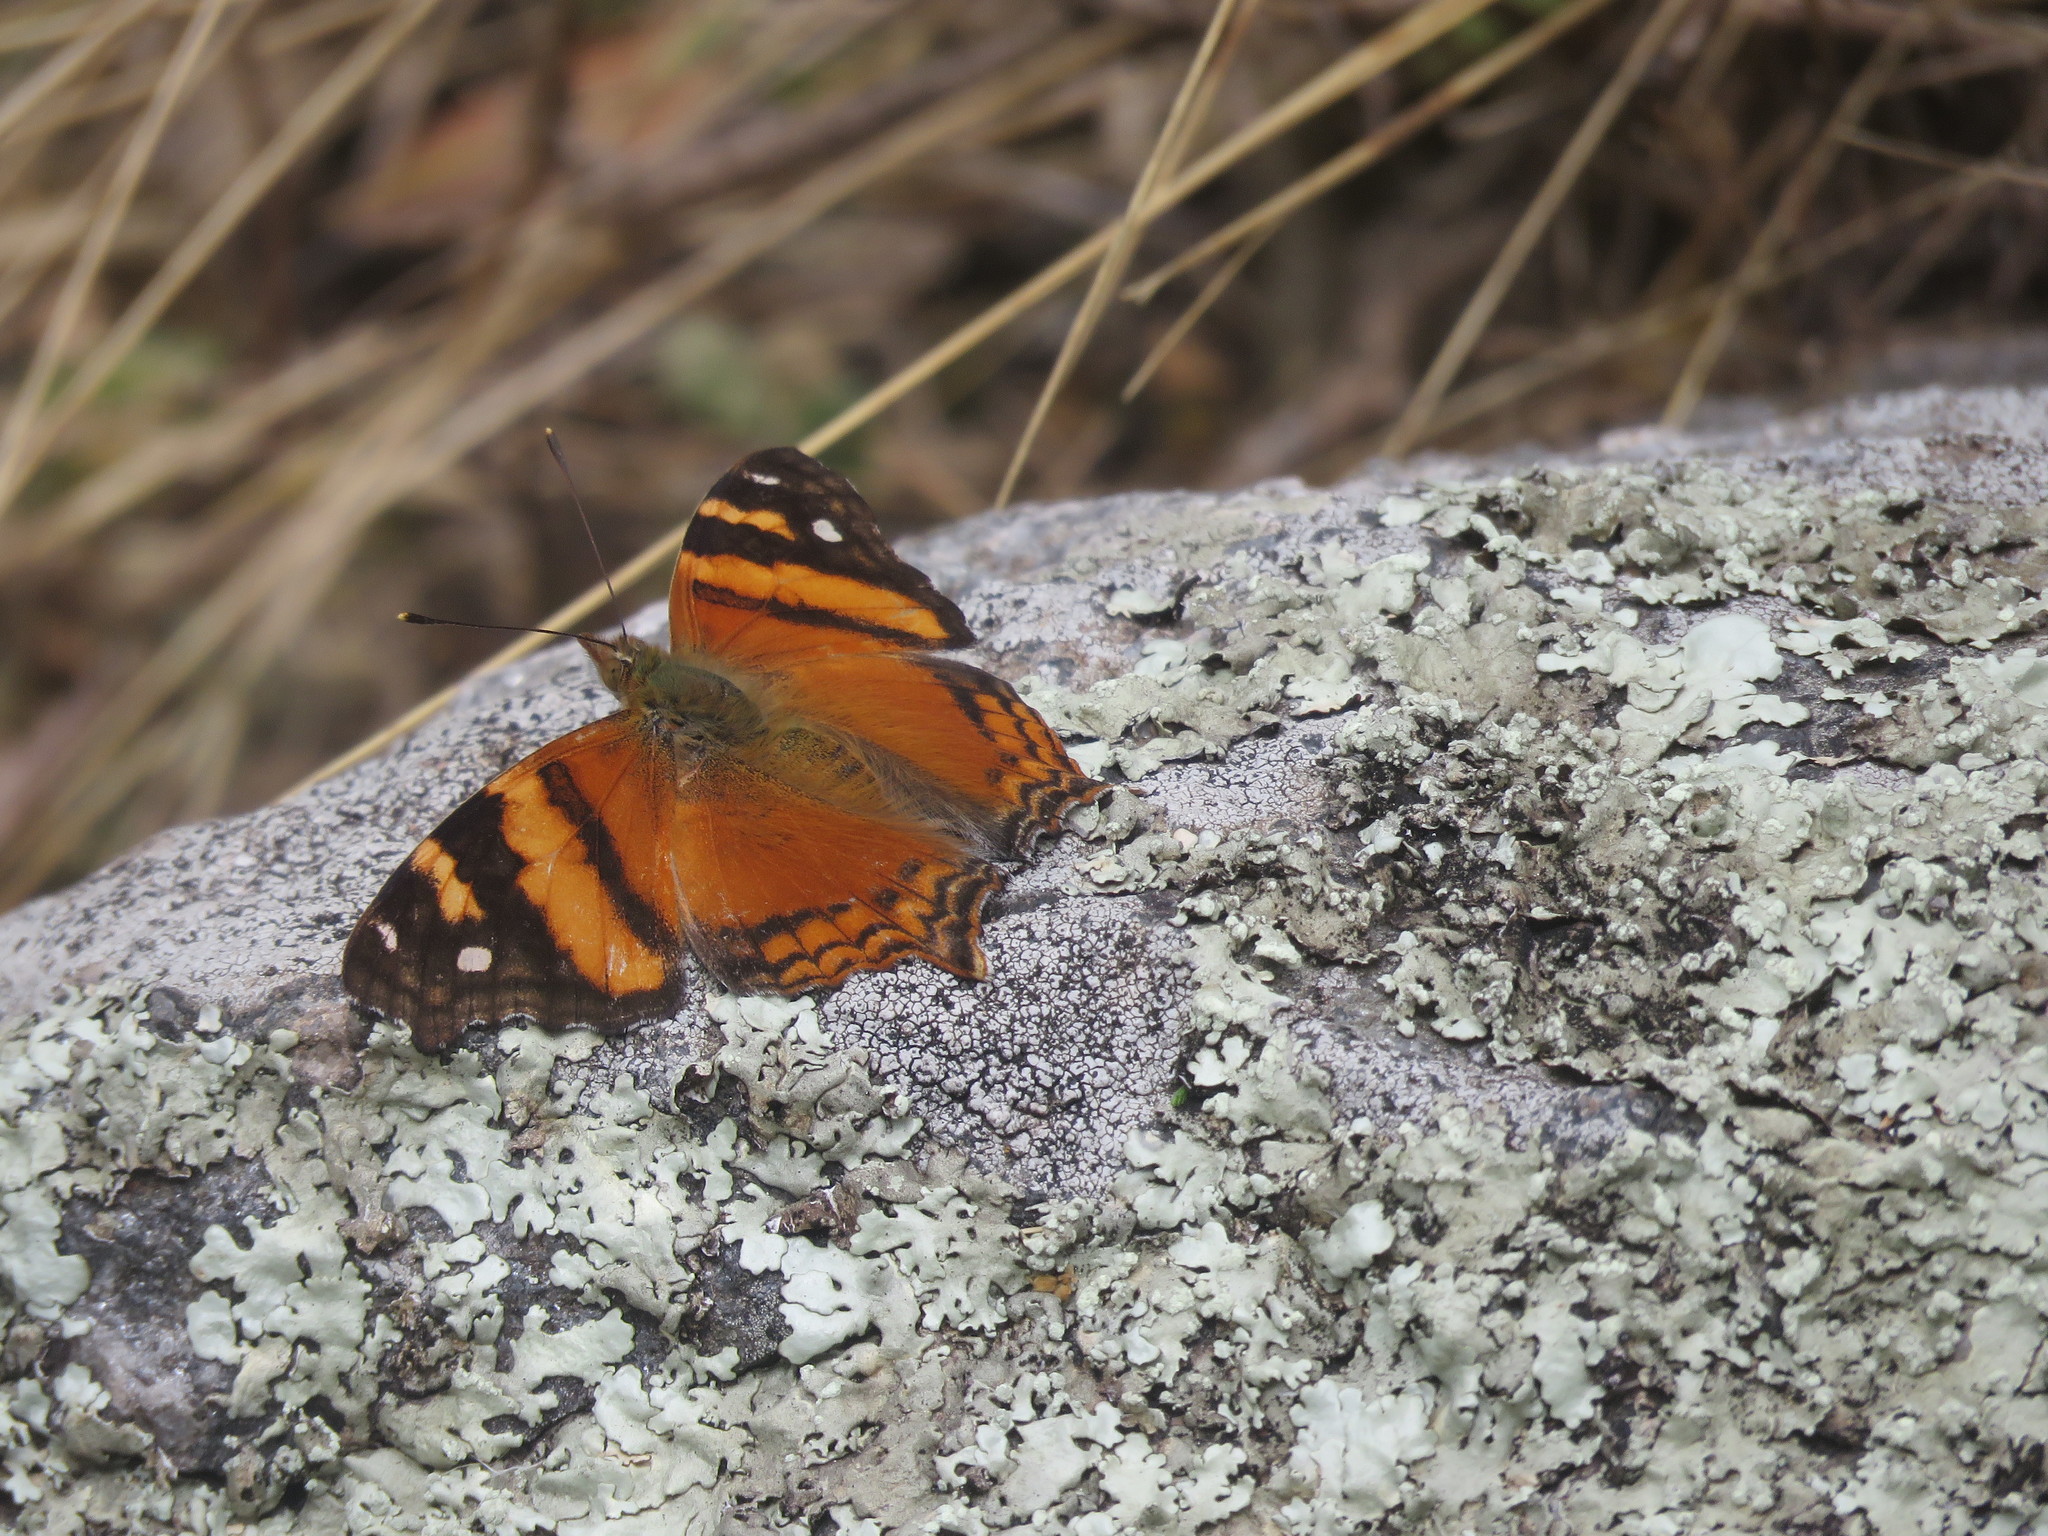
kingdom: Animalia
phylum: Arthropoda
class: Insecta
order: Lepidoptera
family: Nymphalidae
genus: Hypanartia
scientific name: Hypanartia bella
